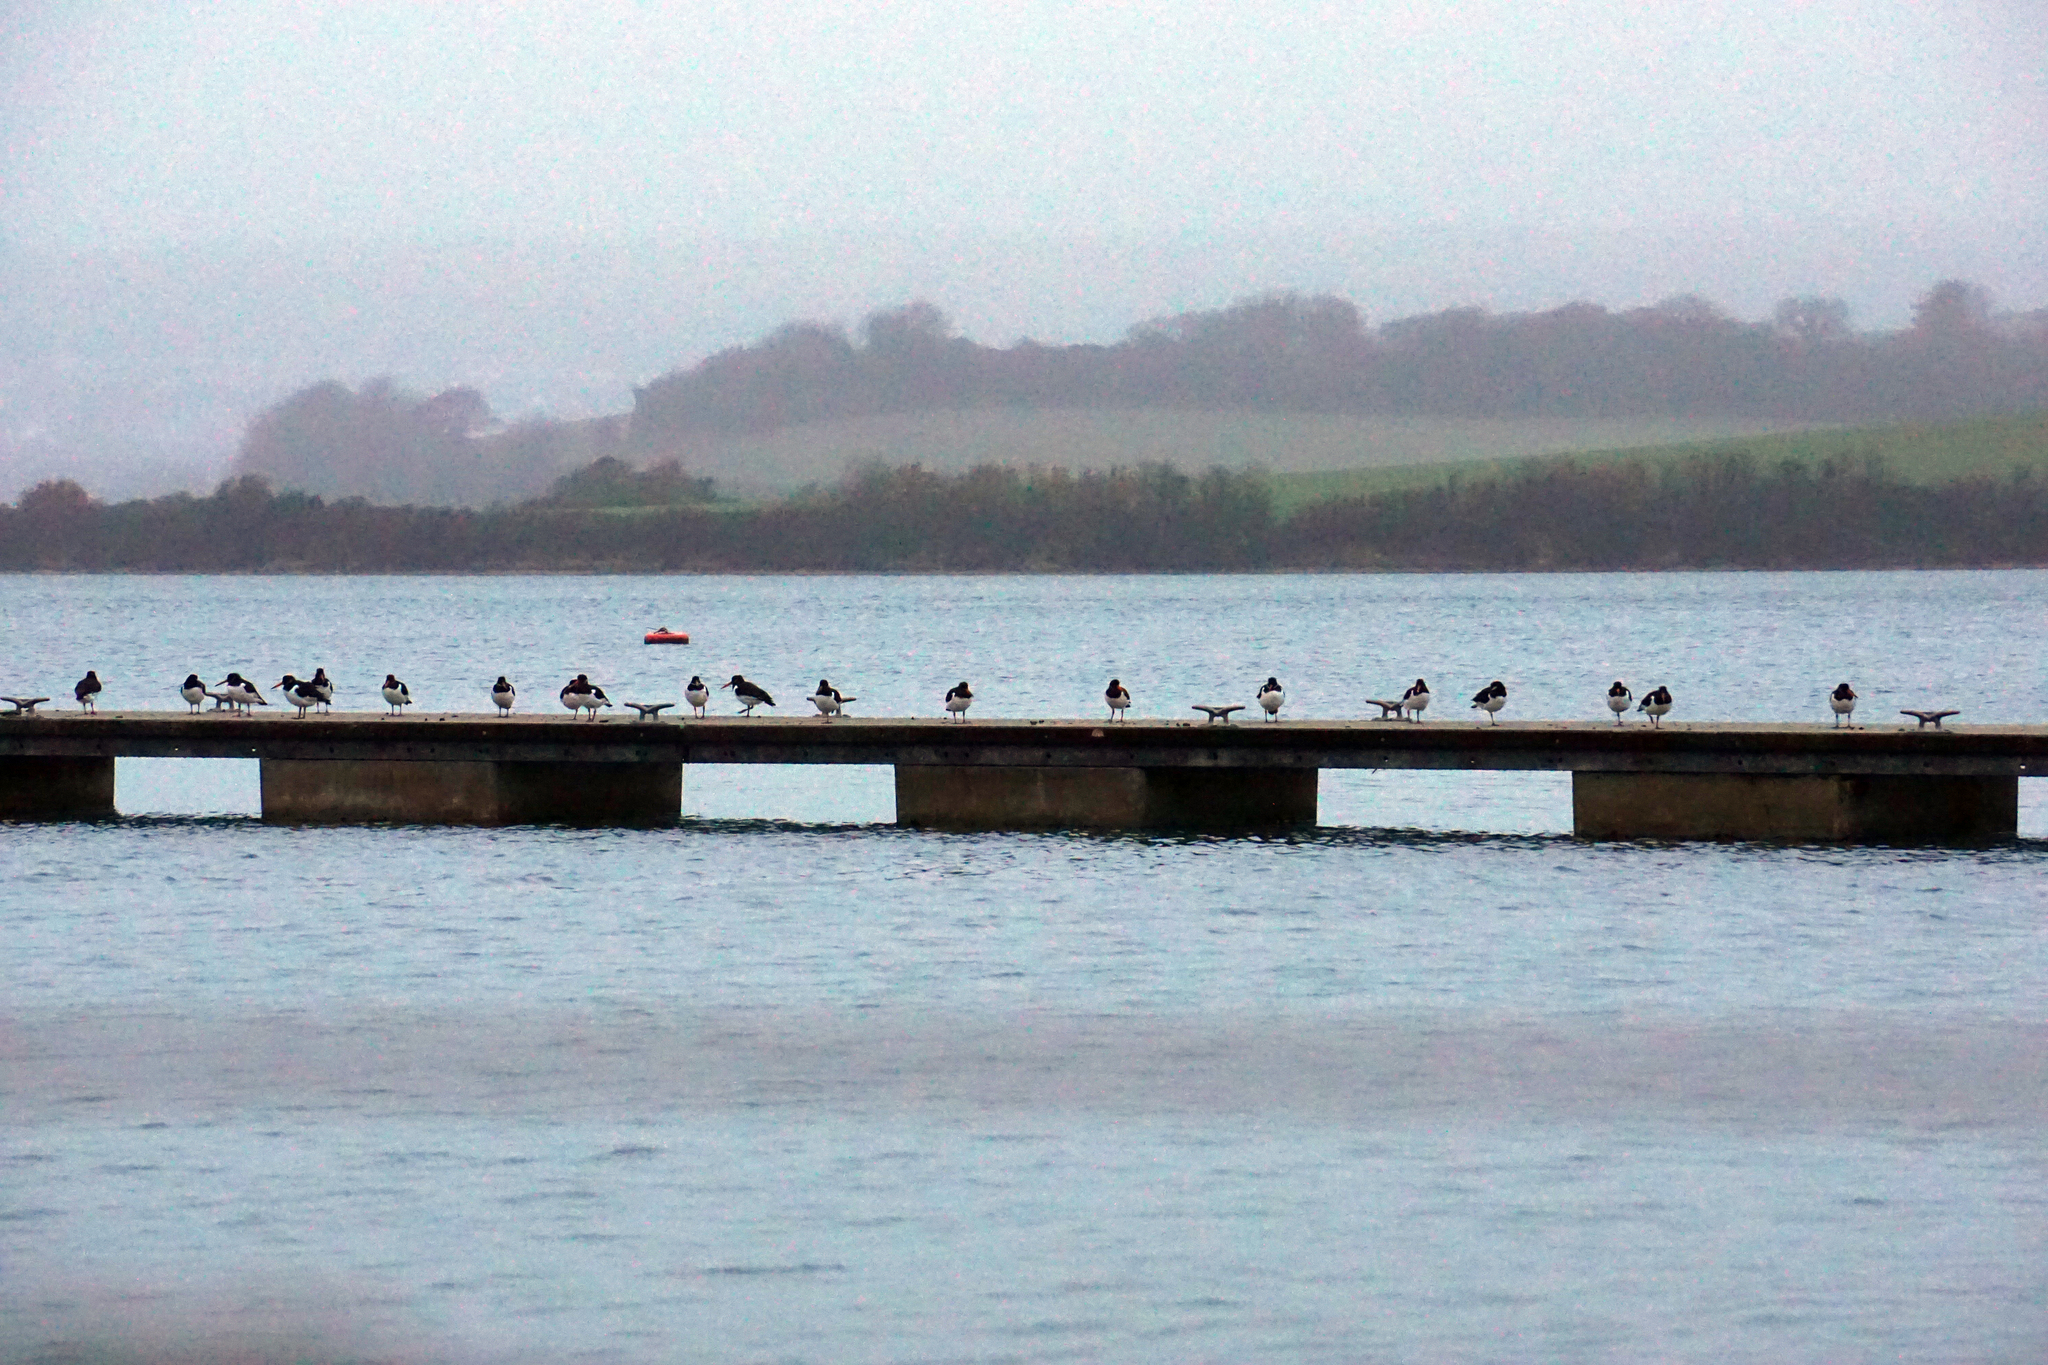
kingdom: Animalia
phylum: Chordata
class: Aves
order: Charadriiformes
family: Haematopodidae
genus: Haematopus
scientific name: Haematopus ostralegus
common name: Eurasian oystercatcher
